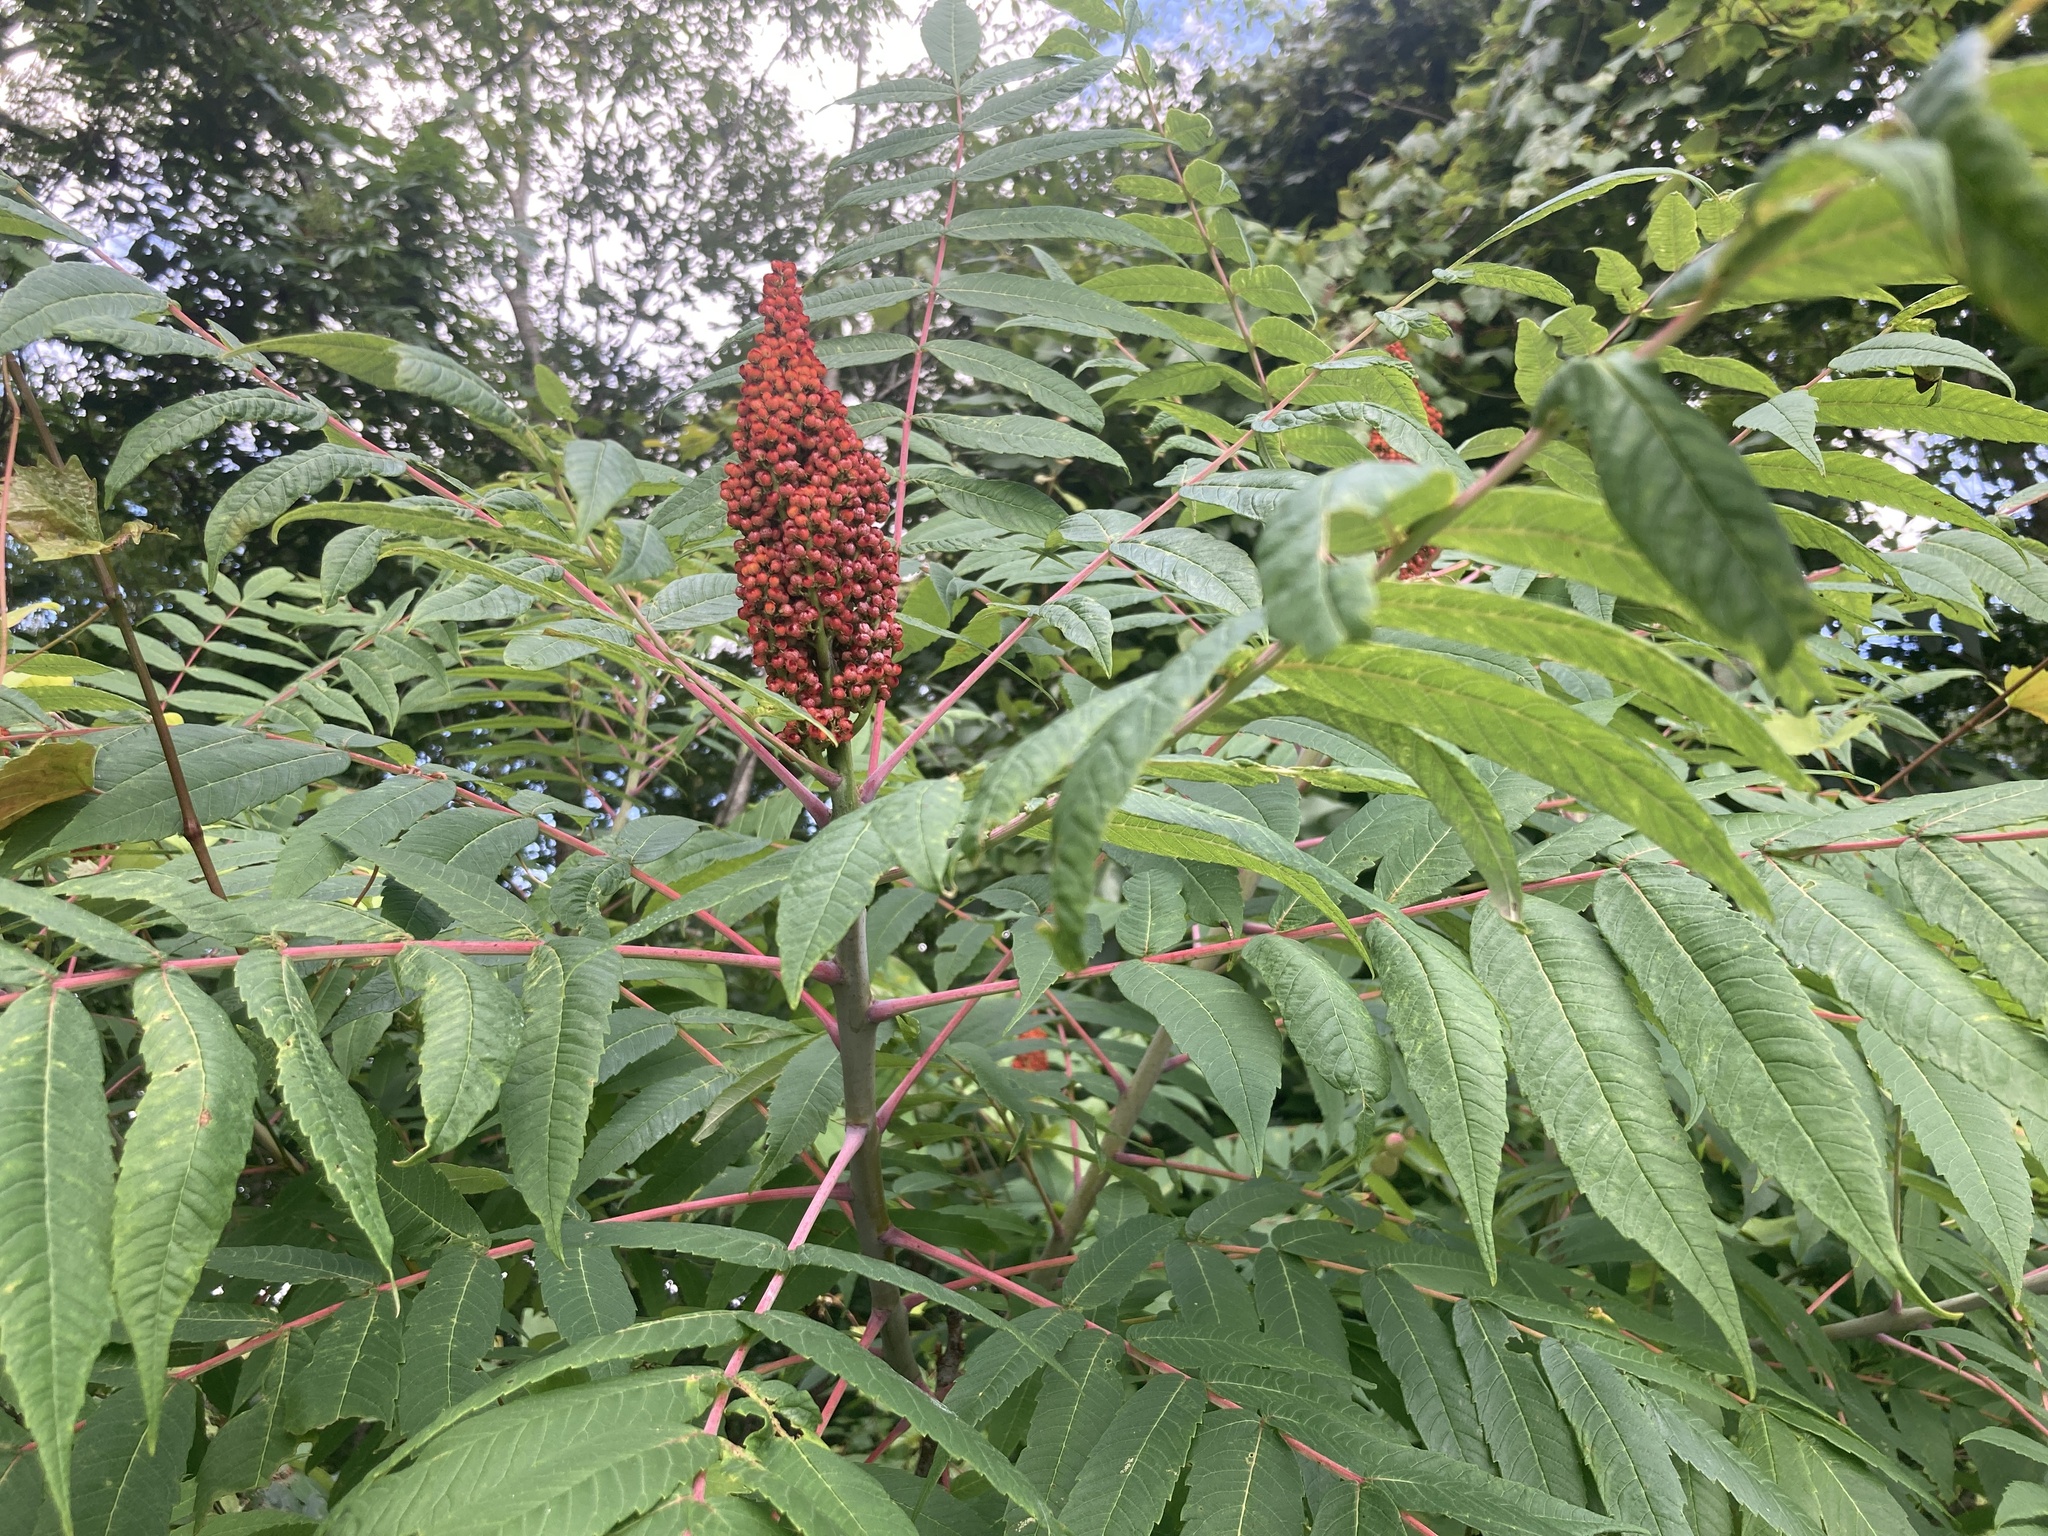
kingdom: Plantae
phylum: Tracheophyta
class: Magnoliopsida
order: Sapindales
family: Anacardiaceae
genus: Rhus
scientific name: Rhus glabra
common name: Scarlet sumac
